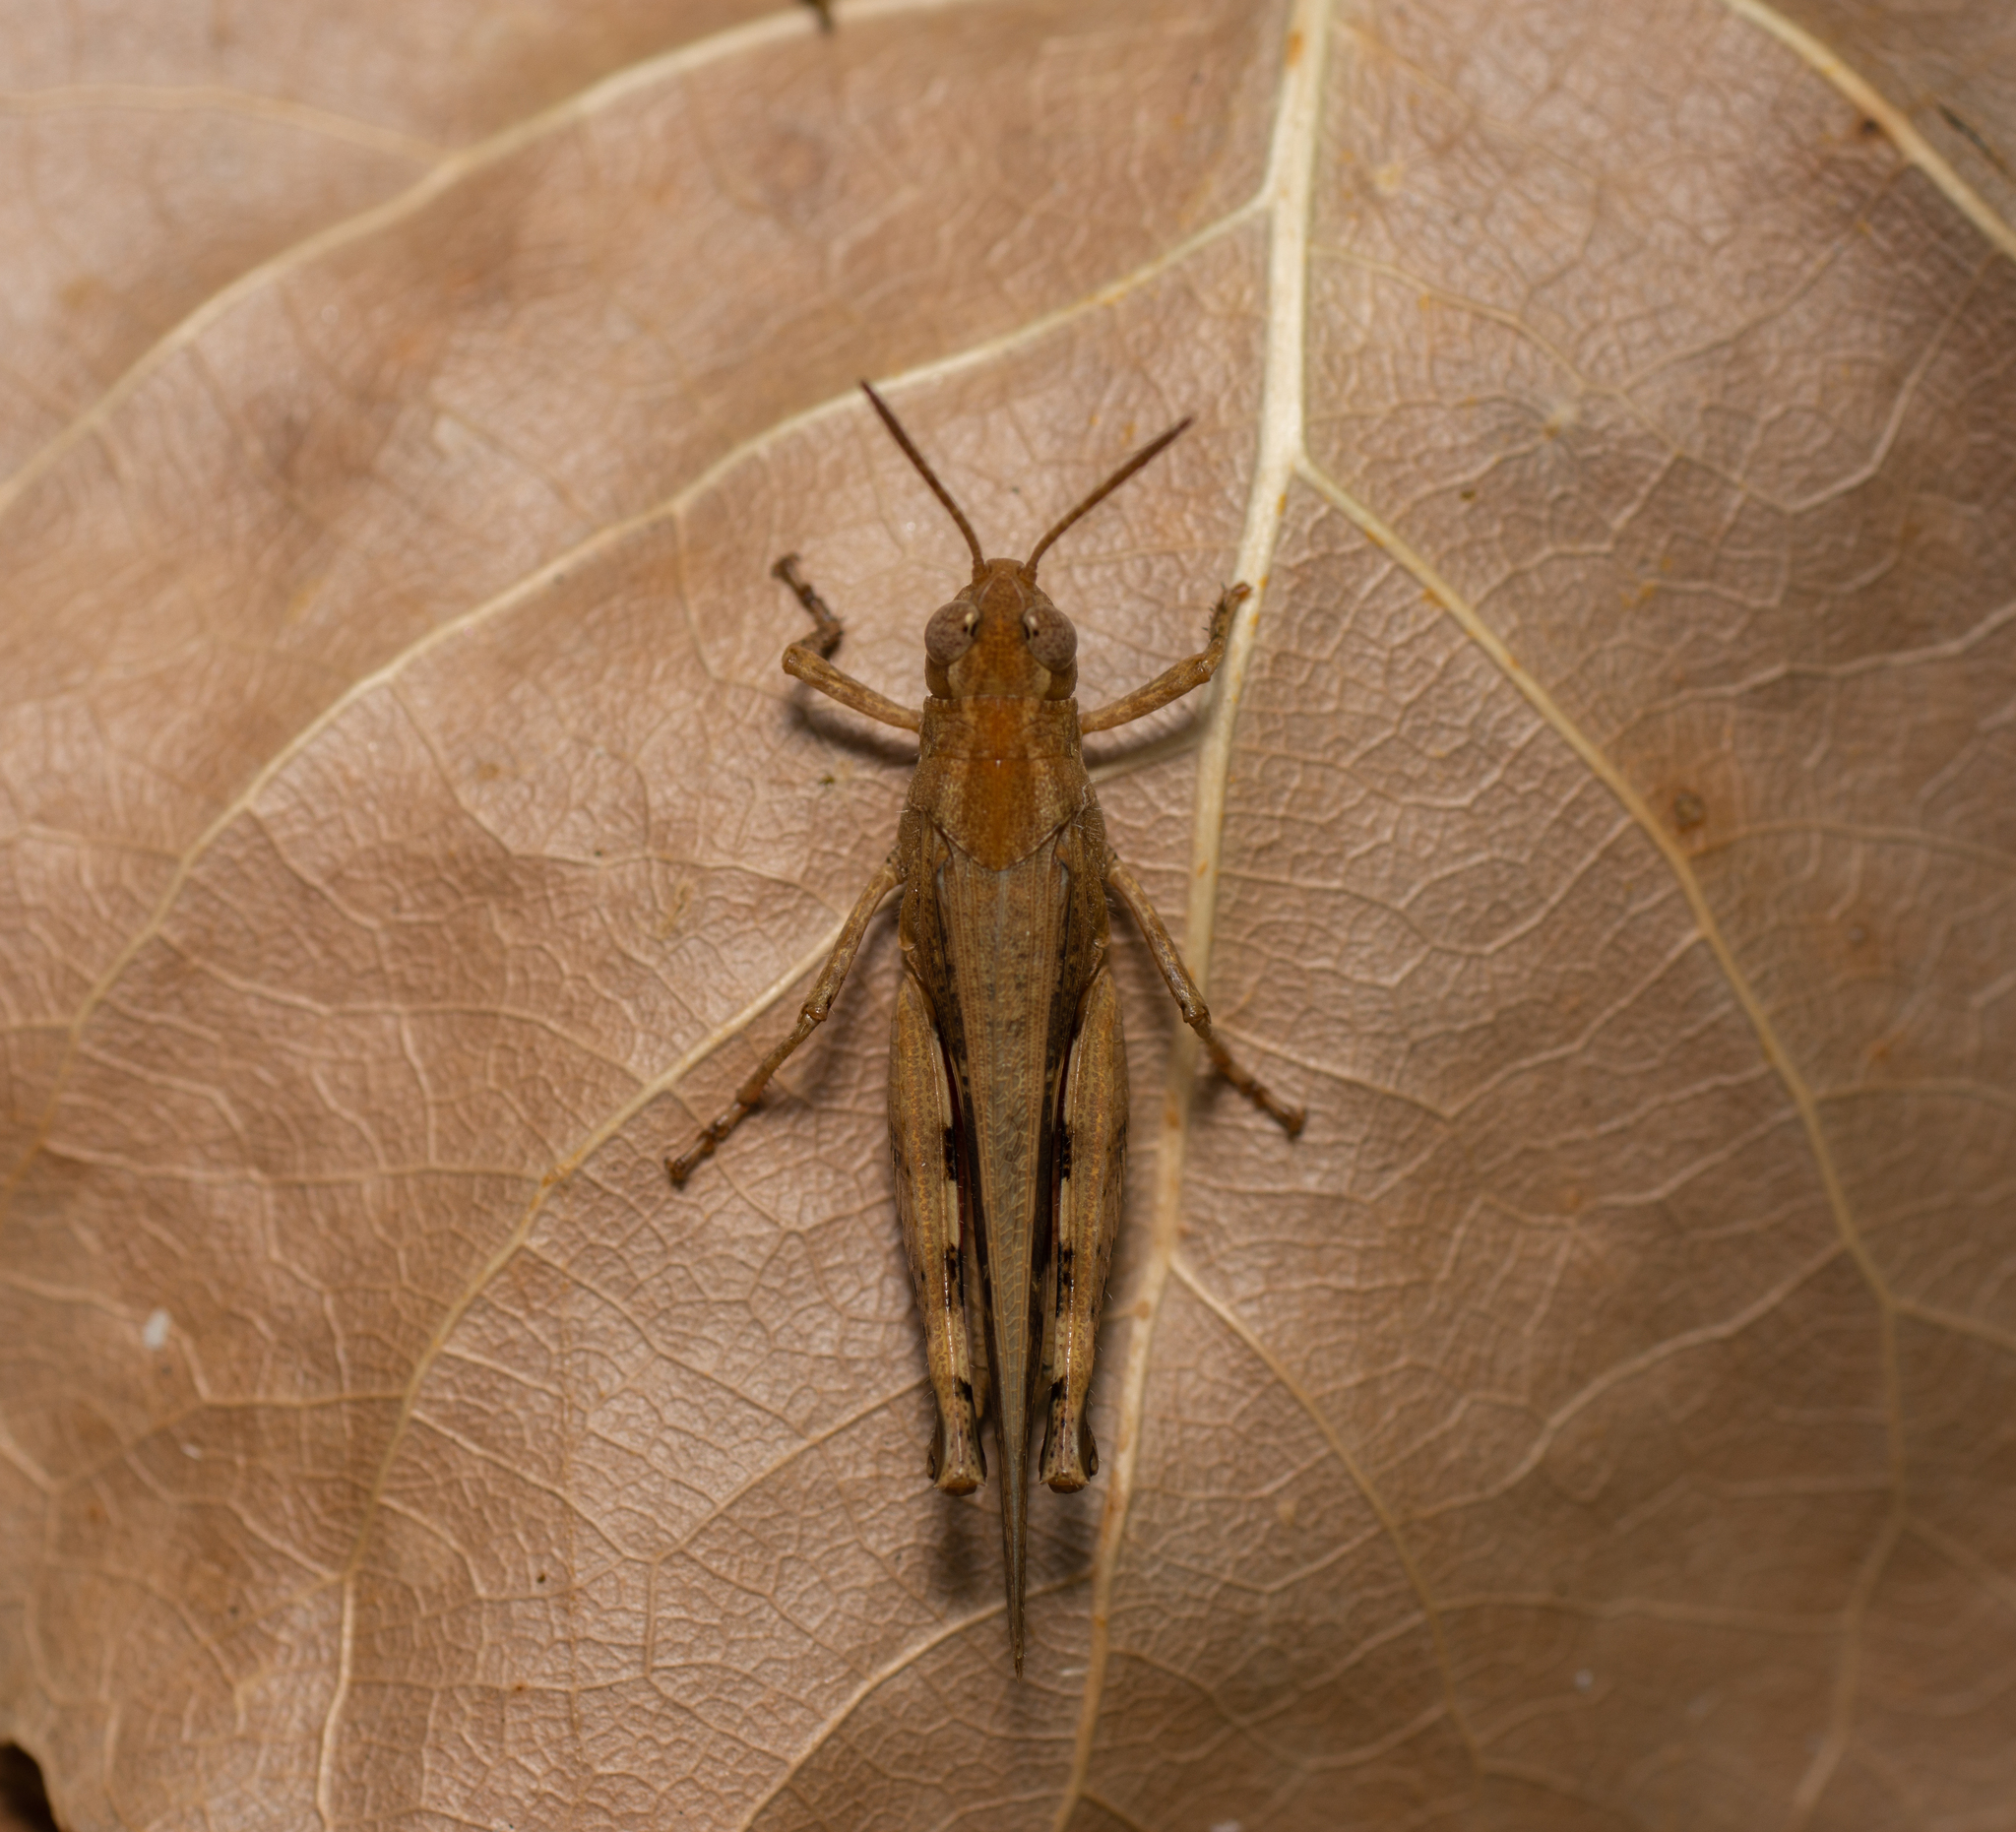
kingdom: Animalia
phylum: Arthropoda
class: Insecta
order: Orthoptera
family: Acrididae
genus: Aiolopus
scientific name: Aiolopus strepens
